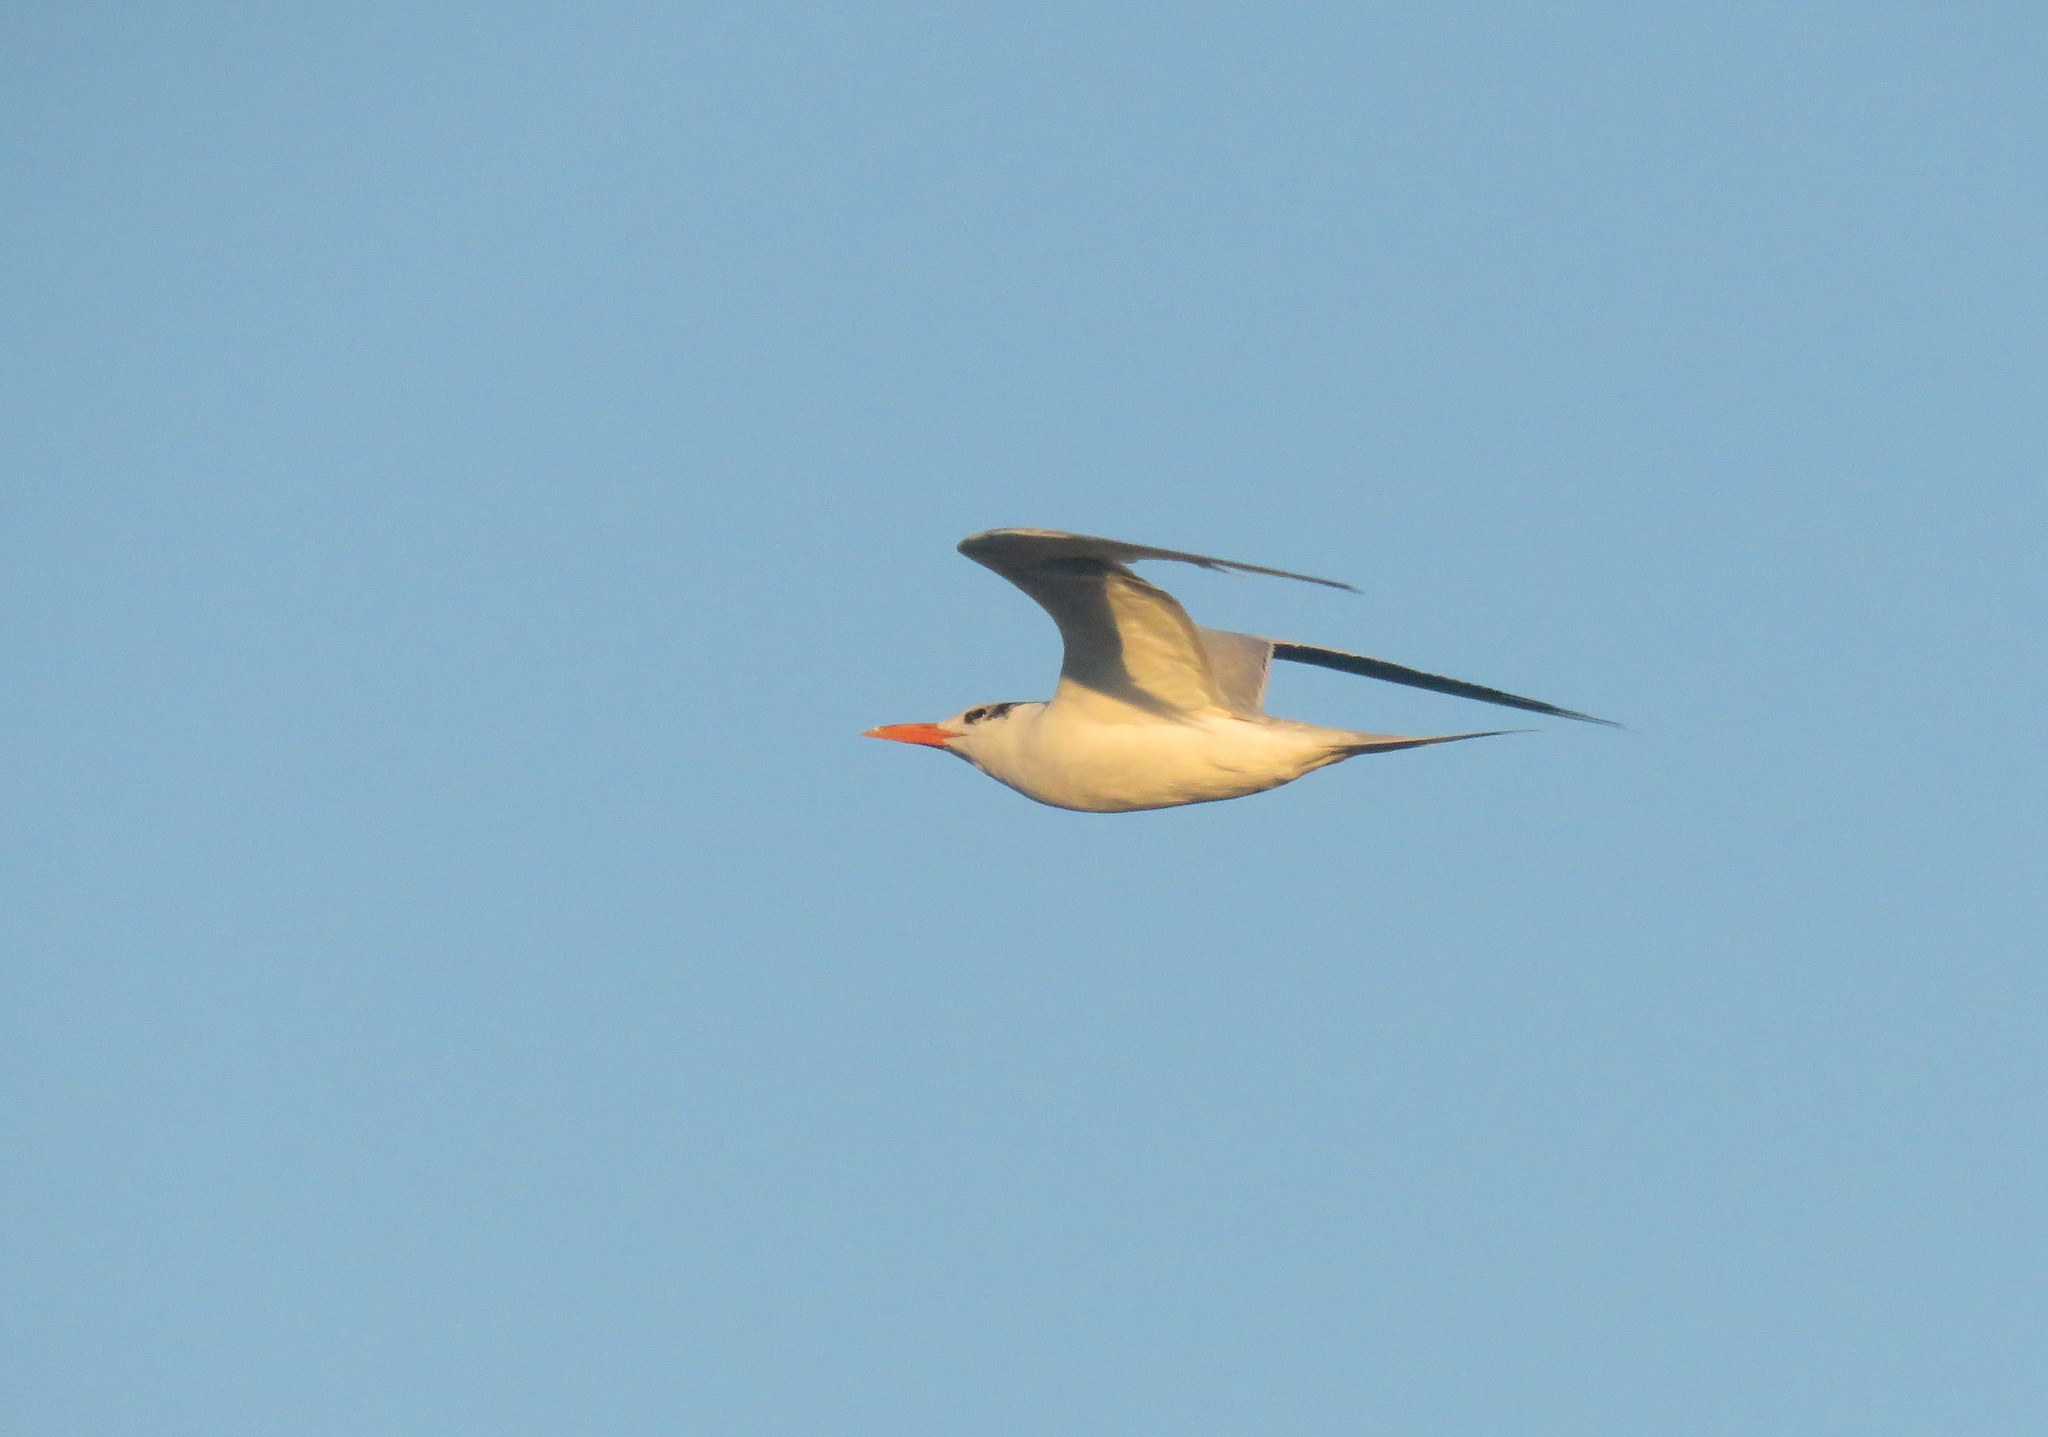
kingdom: Animalia
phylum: Chordata
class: Aves
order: Charadriiformes
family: Laridae
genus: Thalasseus
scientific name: Thalasseus maximus
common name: Royal tern
